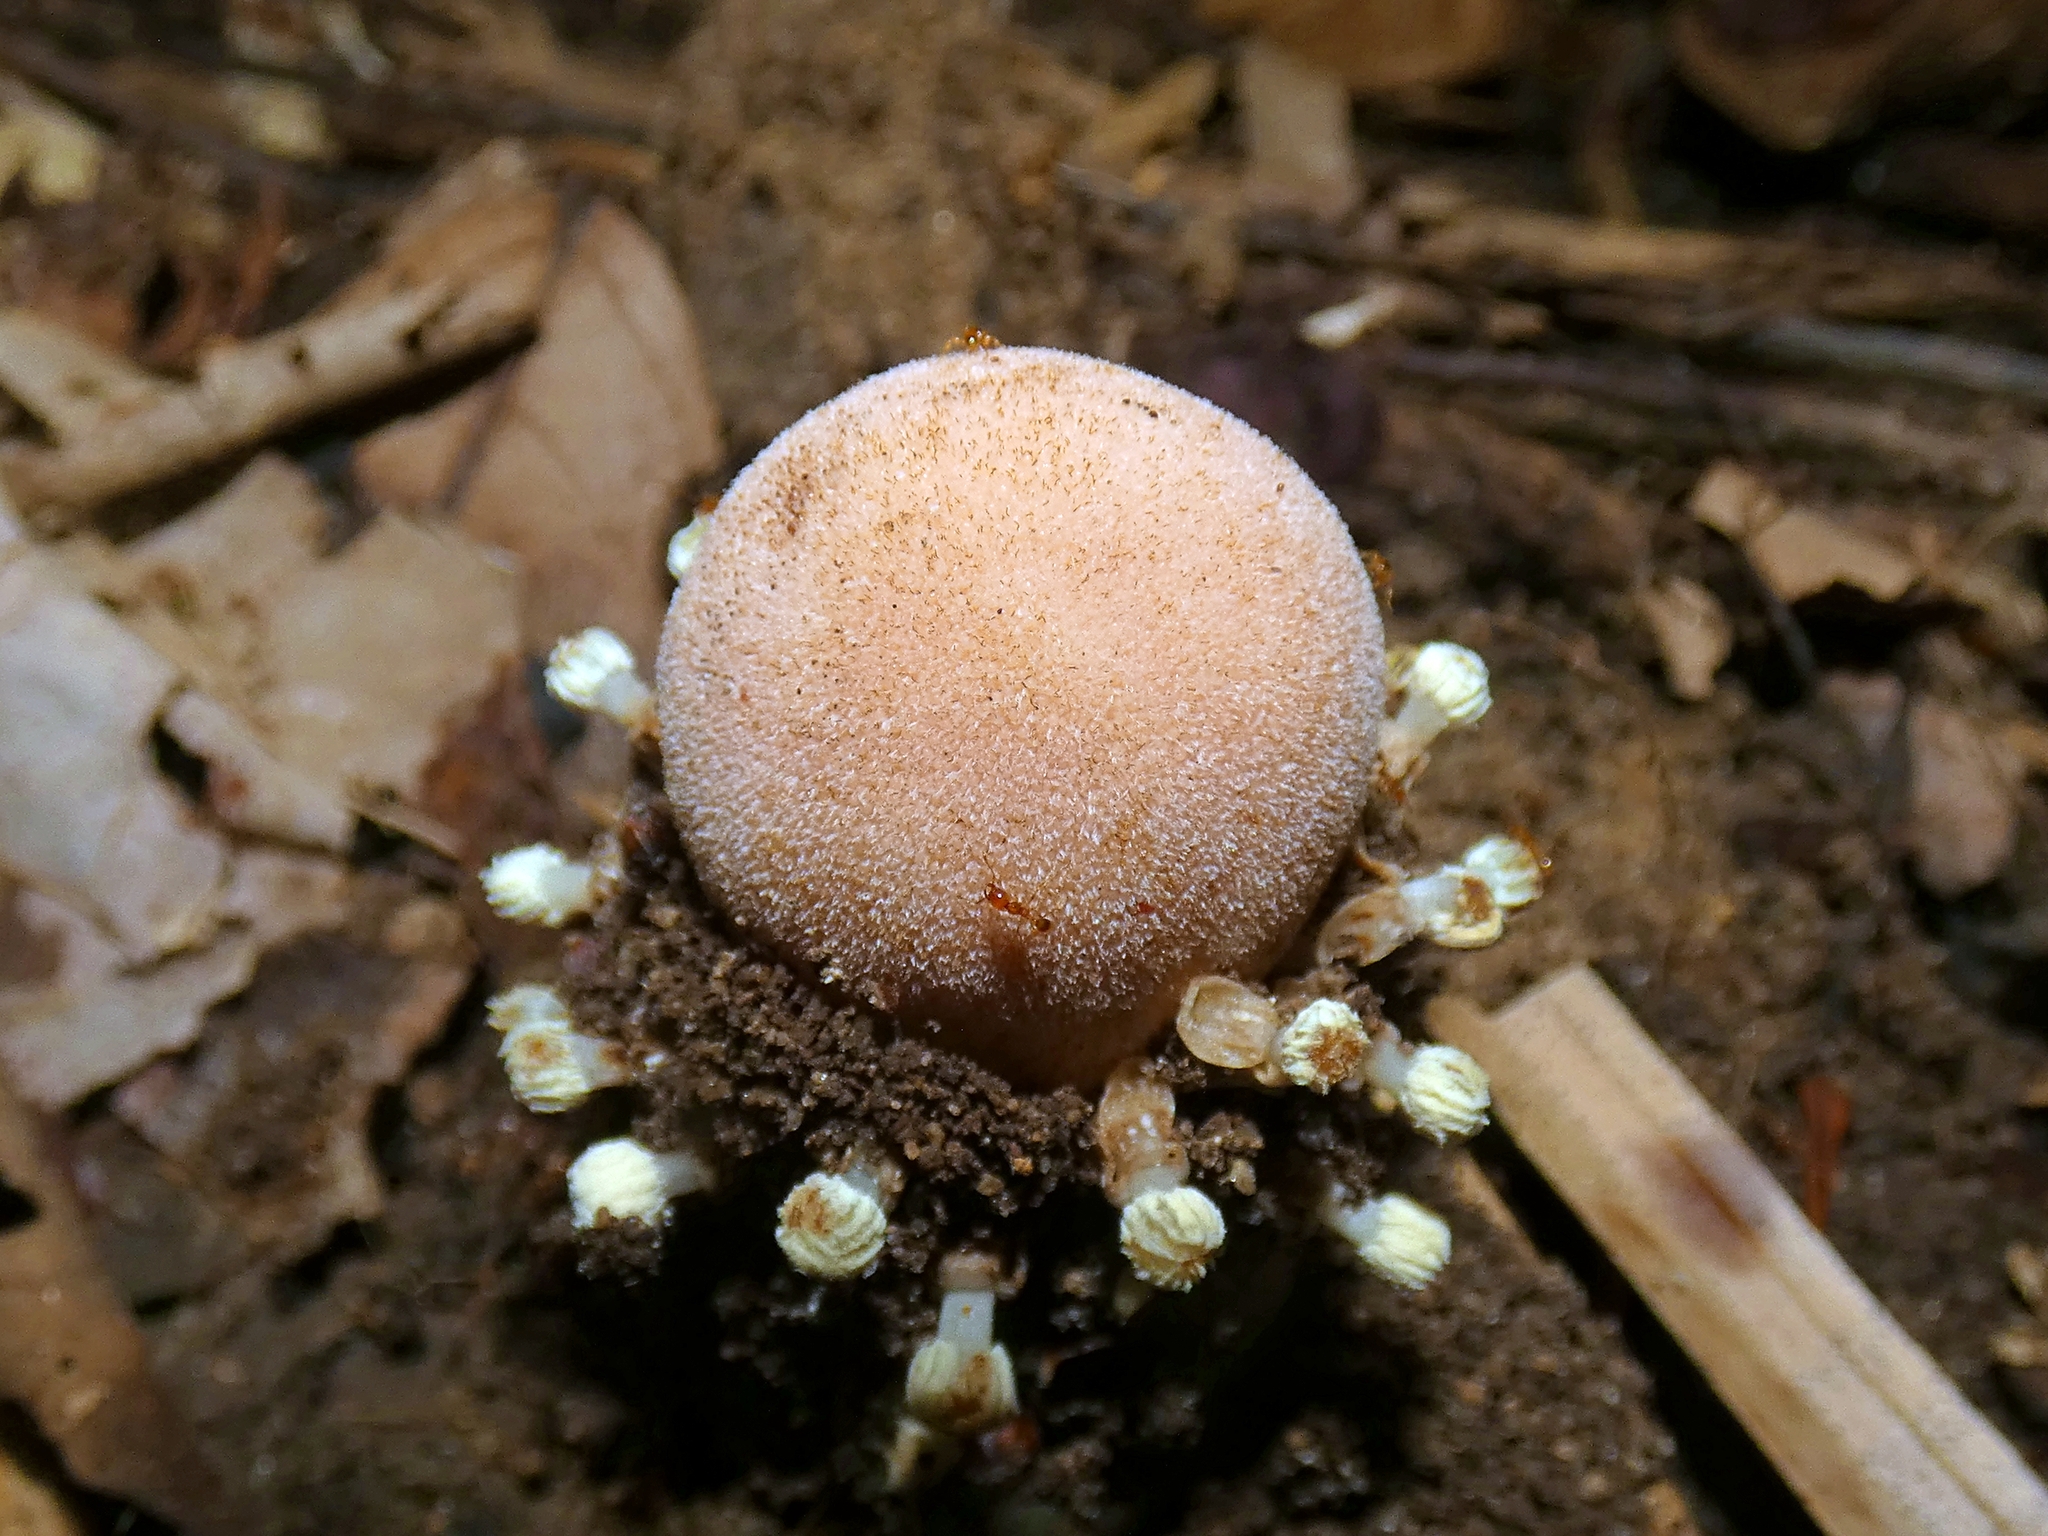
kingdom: Plantae
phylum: Tracheophyta
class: Magnoliopsida
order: Santalales
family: Balanophoraceae
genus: Balanophora
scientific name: Balanophora fungosa
